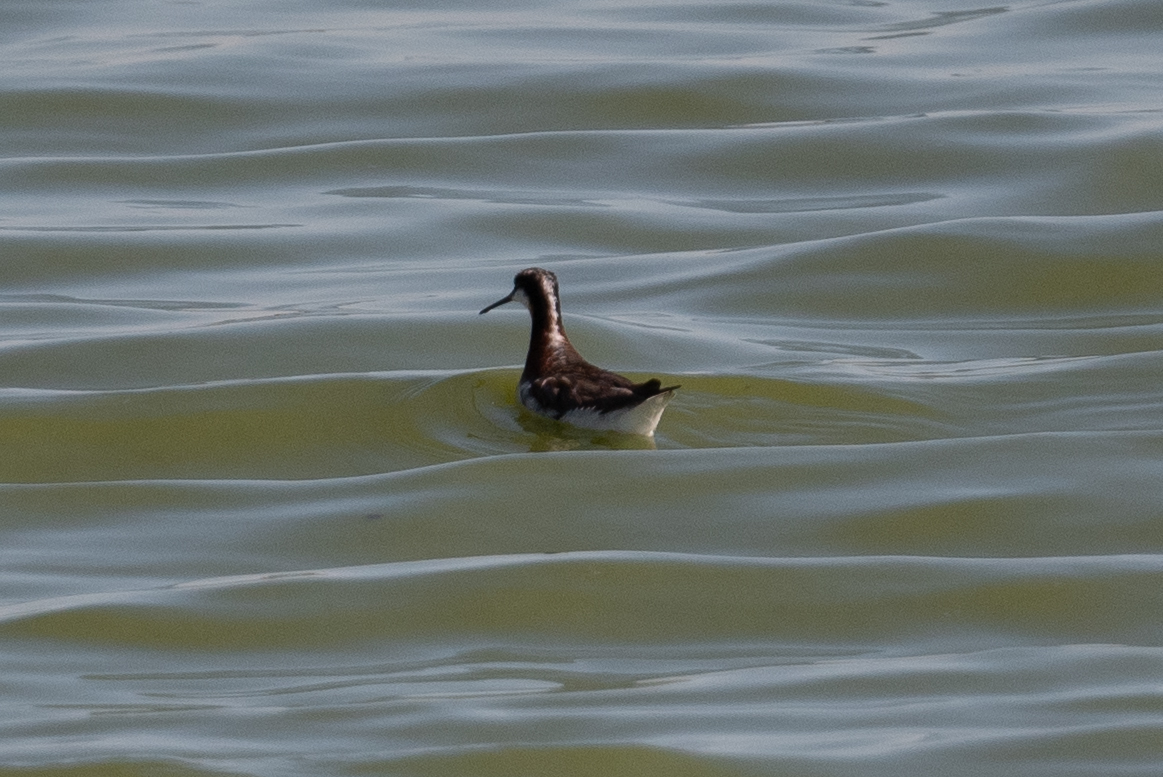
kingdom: Animalia
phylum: Chordata
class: Aves
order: Charadriiformes
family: Scolopacidae
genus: Phalaropus
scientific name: Phalaropus tricolor
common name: Wilson's phalarope
